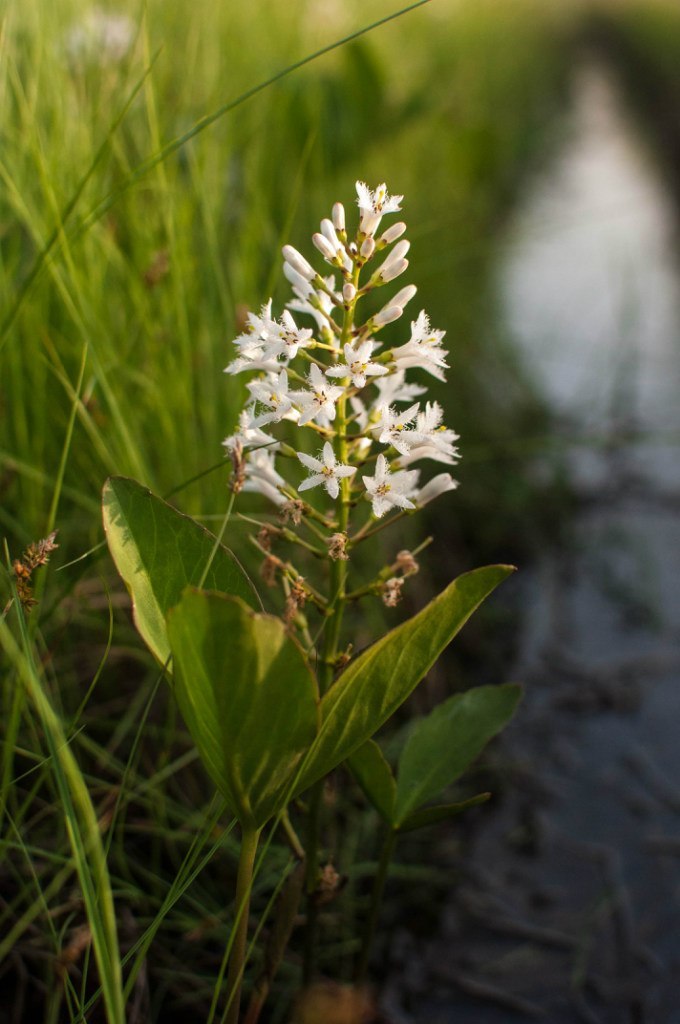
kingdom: Plantae
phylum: Tracheophyta
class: Magnoliopsida
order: Asterales
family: Menyanthaceae
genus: Menyanthes
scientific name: Menyanthes trifoliata
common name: Bogbean
